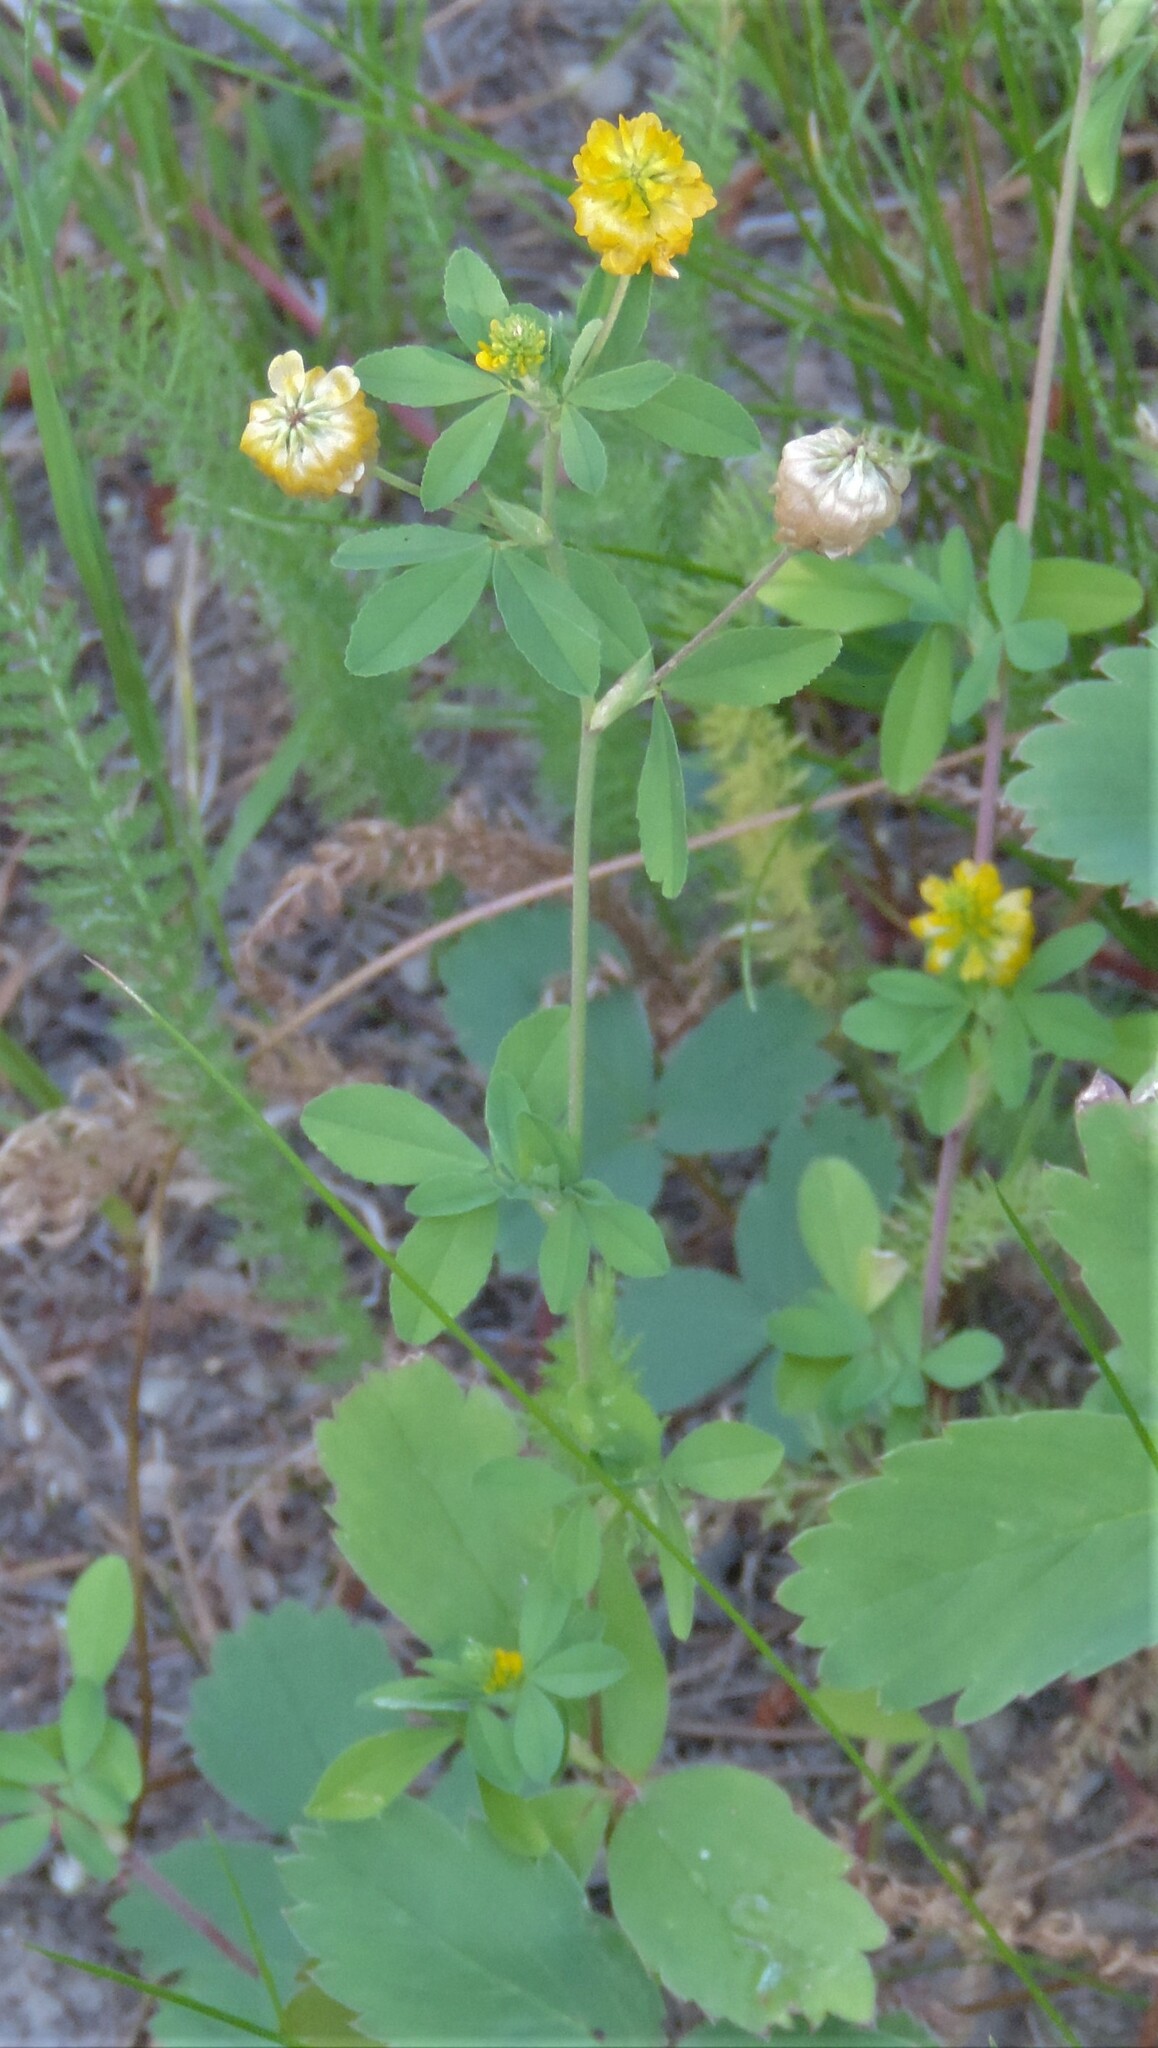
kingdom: Plantae
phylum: Tracheophyta
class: Magnoliopsida
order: Fabales
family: Fabaceae
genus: Trifolium
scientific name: Trifolium aureum
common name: Golden clover
